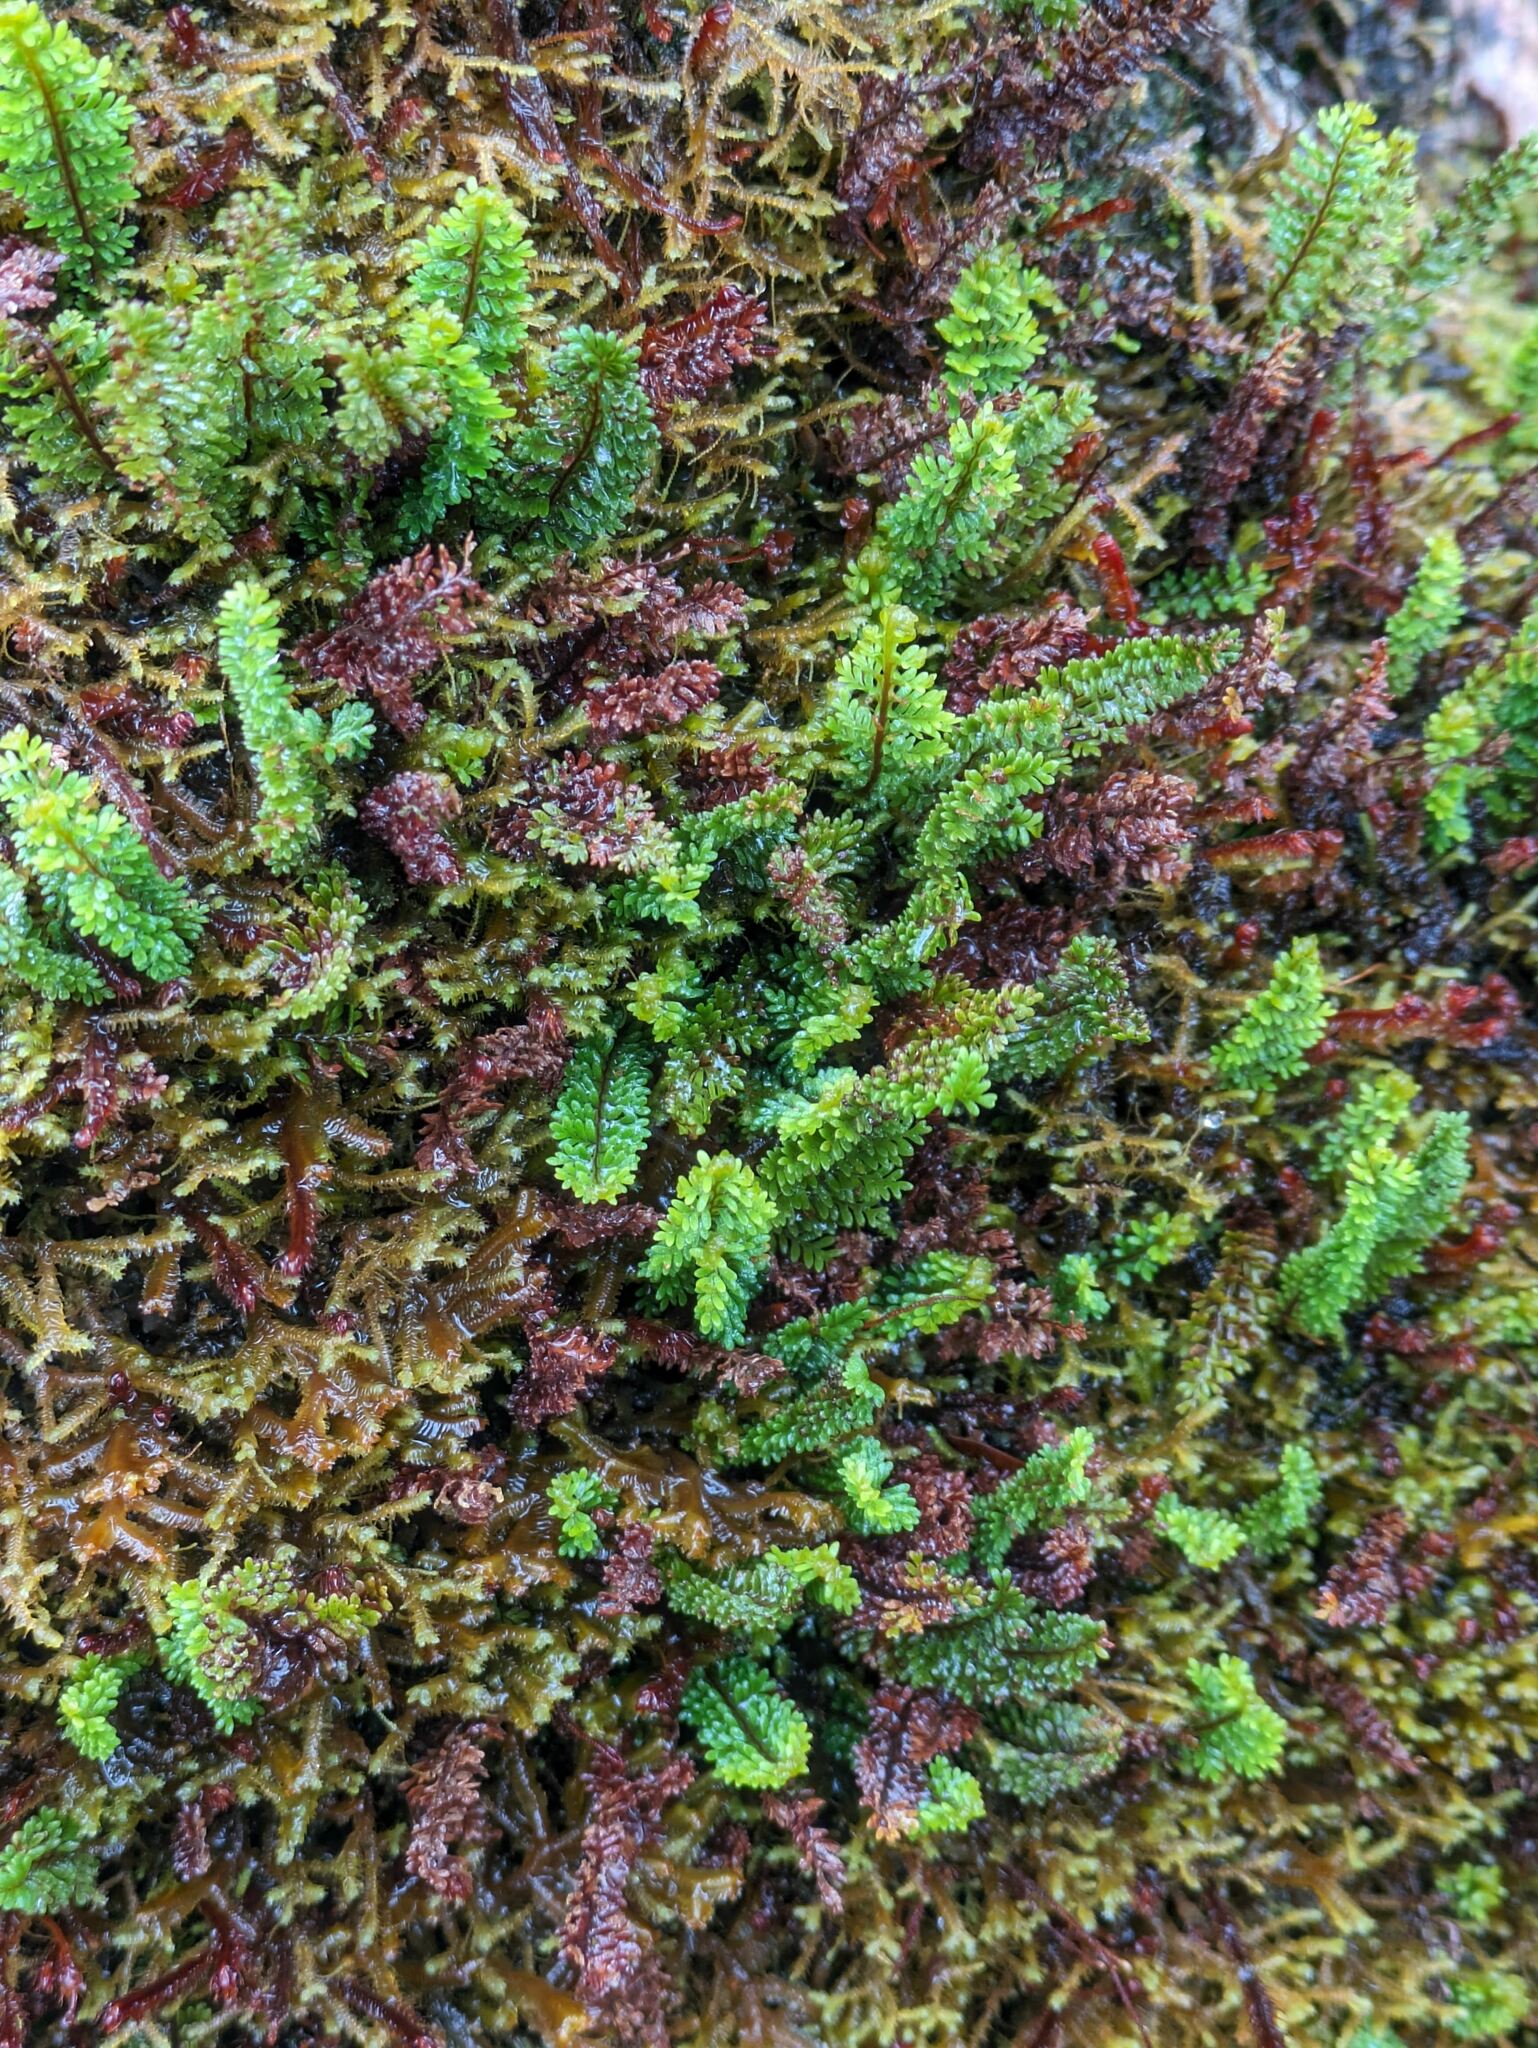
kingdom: Plantae
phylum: Tracheophyta
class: Polypodiopsida
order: Polypodiales
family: Polypodiaceae
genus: Adenophorus
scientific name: Adenophorus tamariscinus
